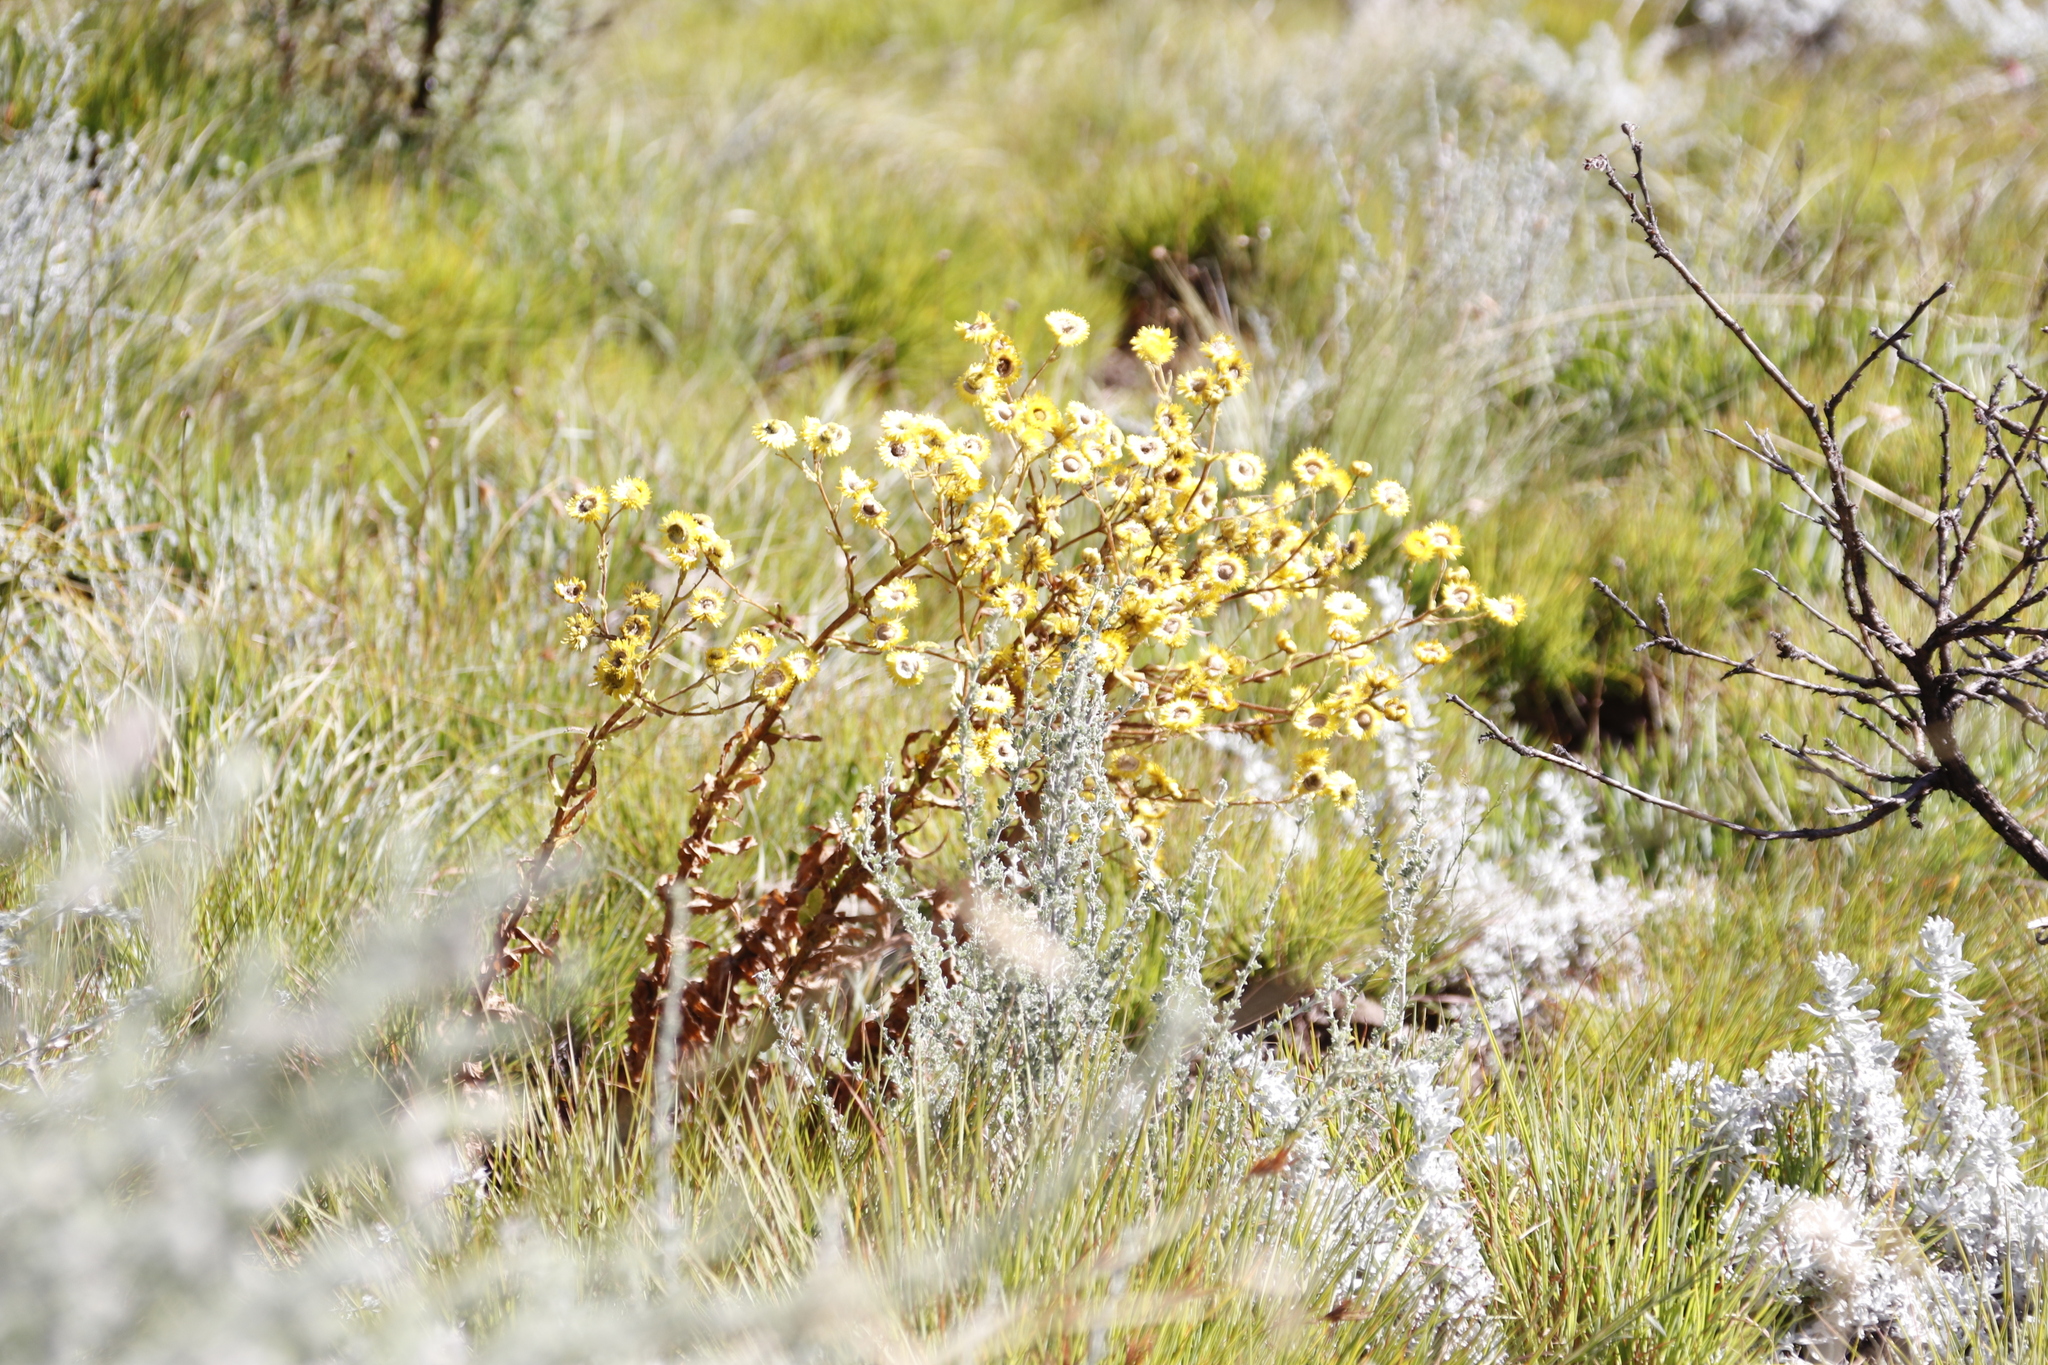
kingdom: Plantae
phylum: Tracheophyta
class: Magnoliopsida
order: Asterales
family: Asteraceae
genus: Helichrysum
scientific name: Helichrysum cooperi
